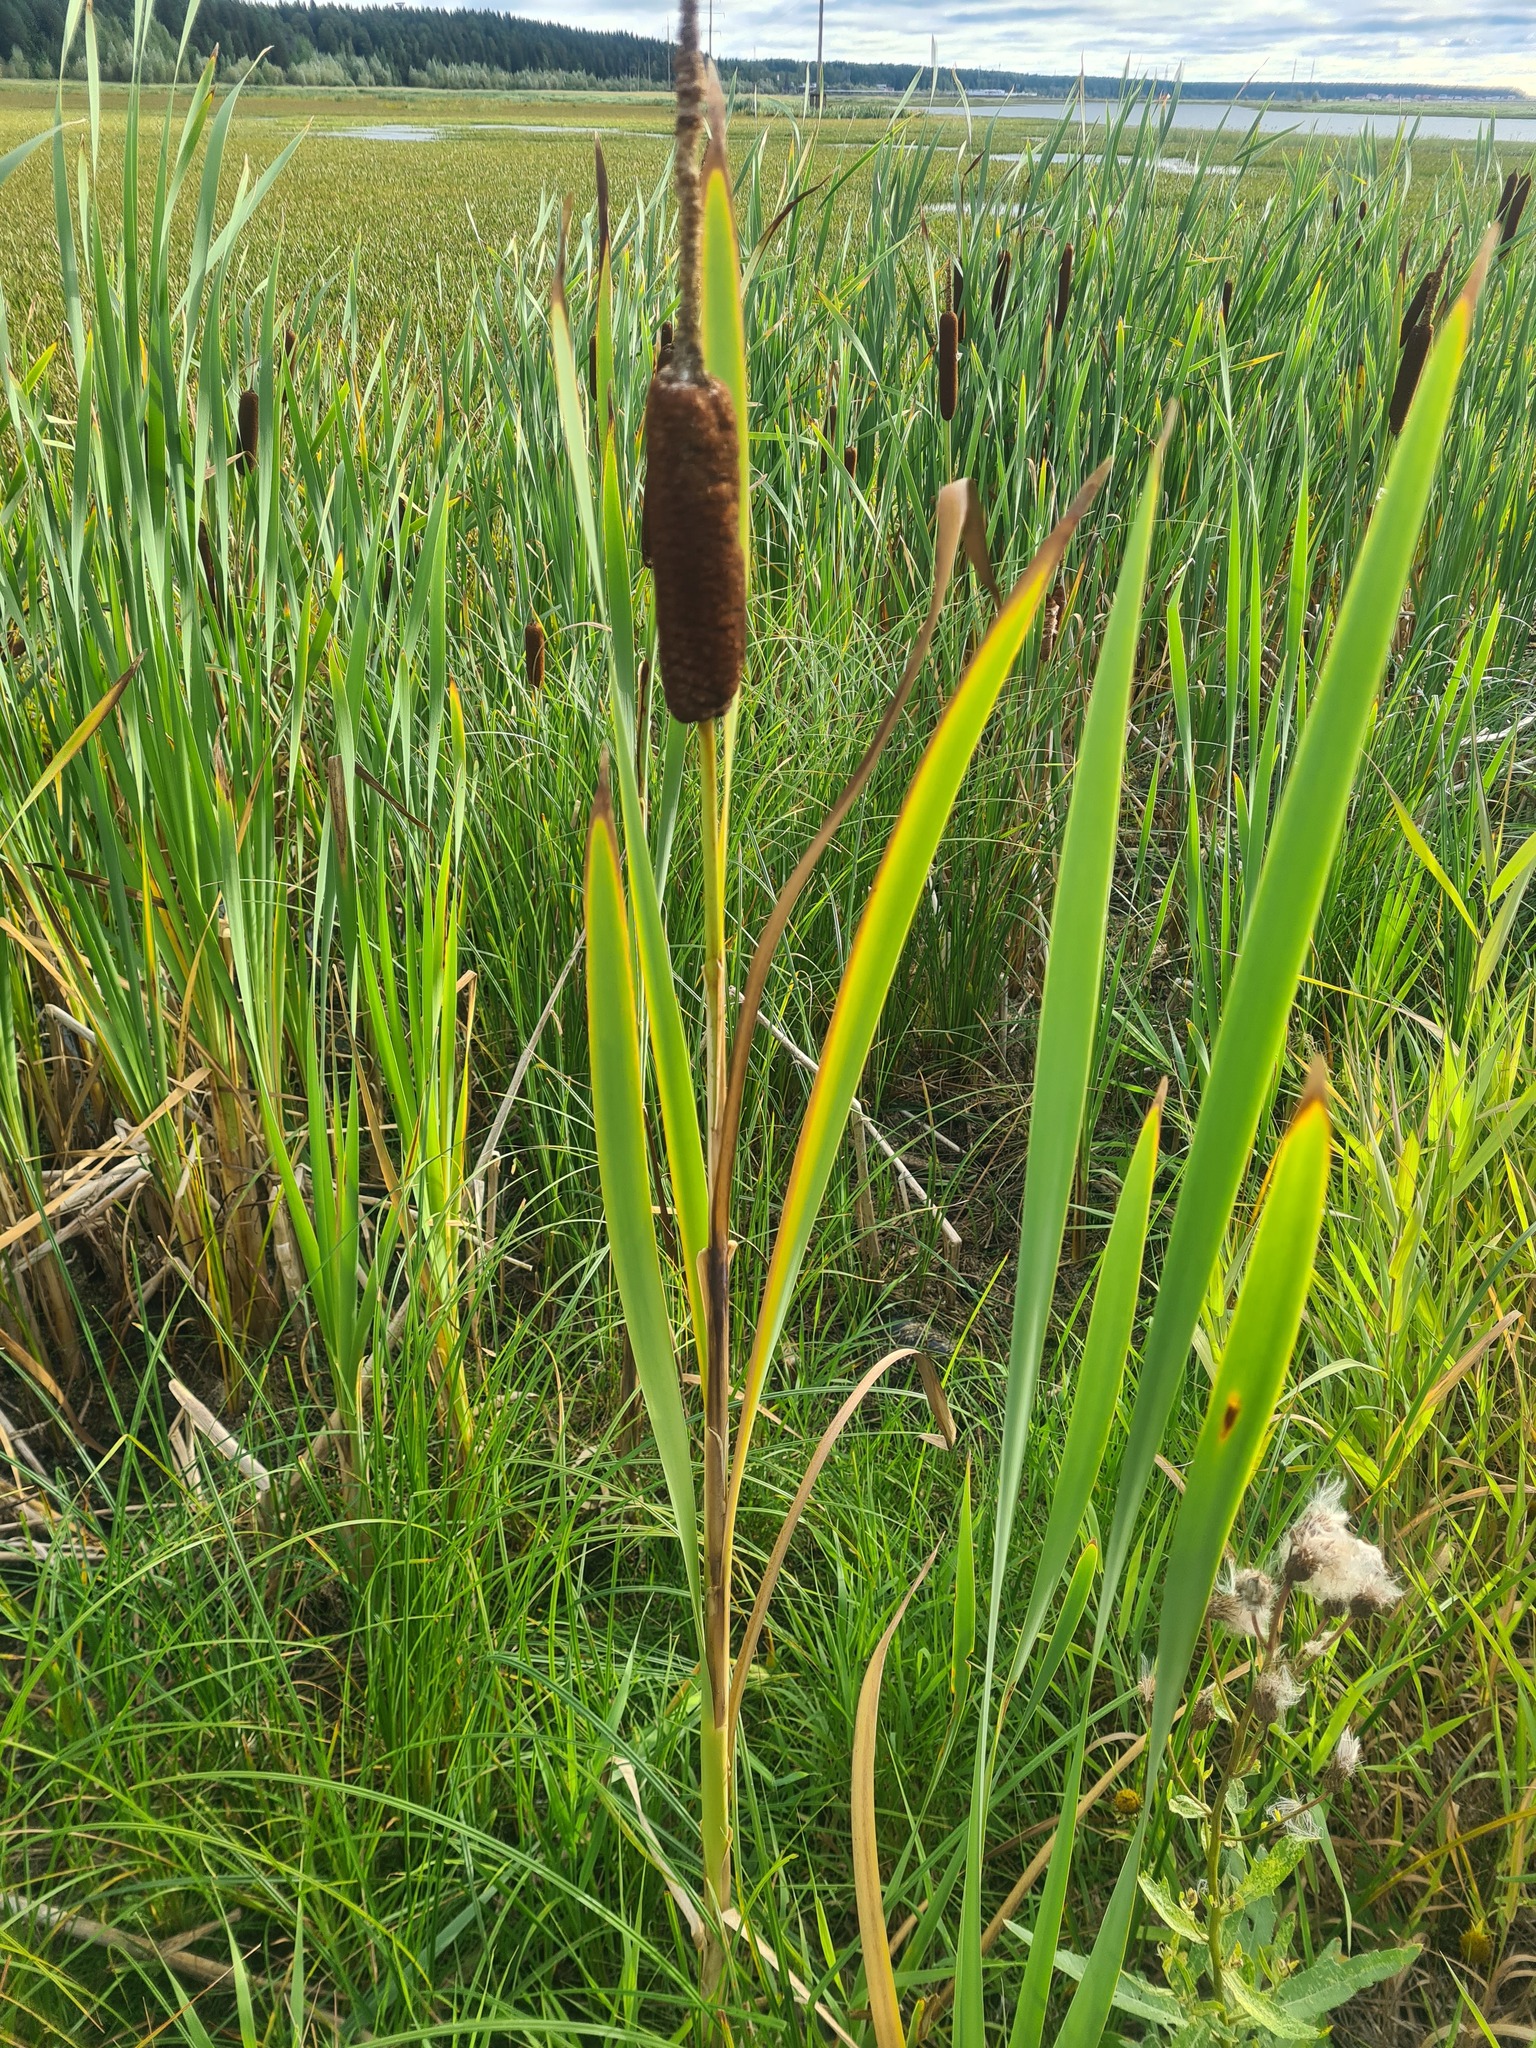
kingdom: Plantae
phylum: Tracheophyta
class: Liliopsida
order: Poales
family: Typhaceae
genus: Typha
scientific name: Typha latifolia
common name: Broadleaf cattail
